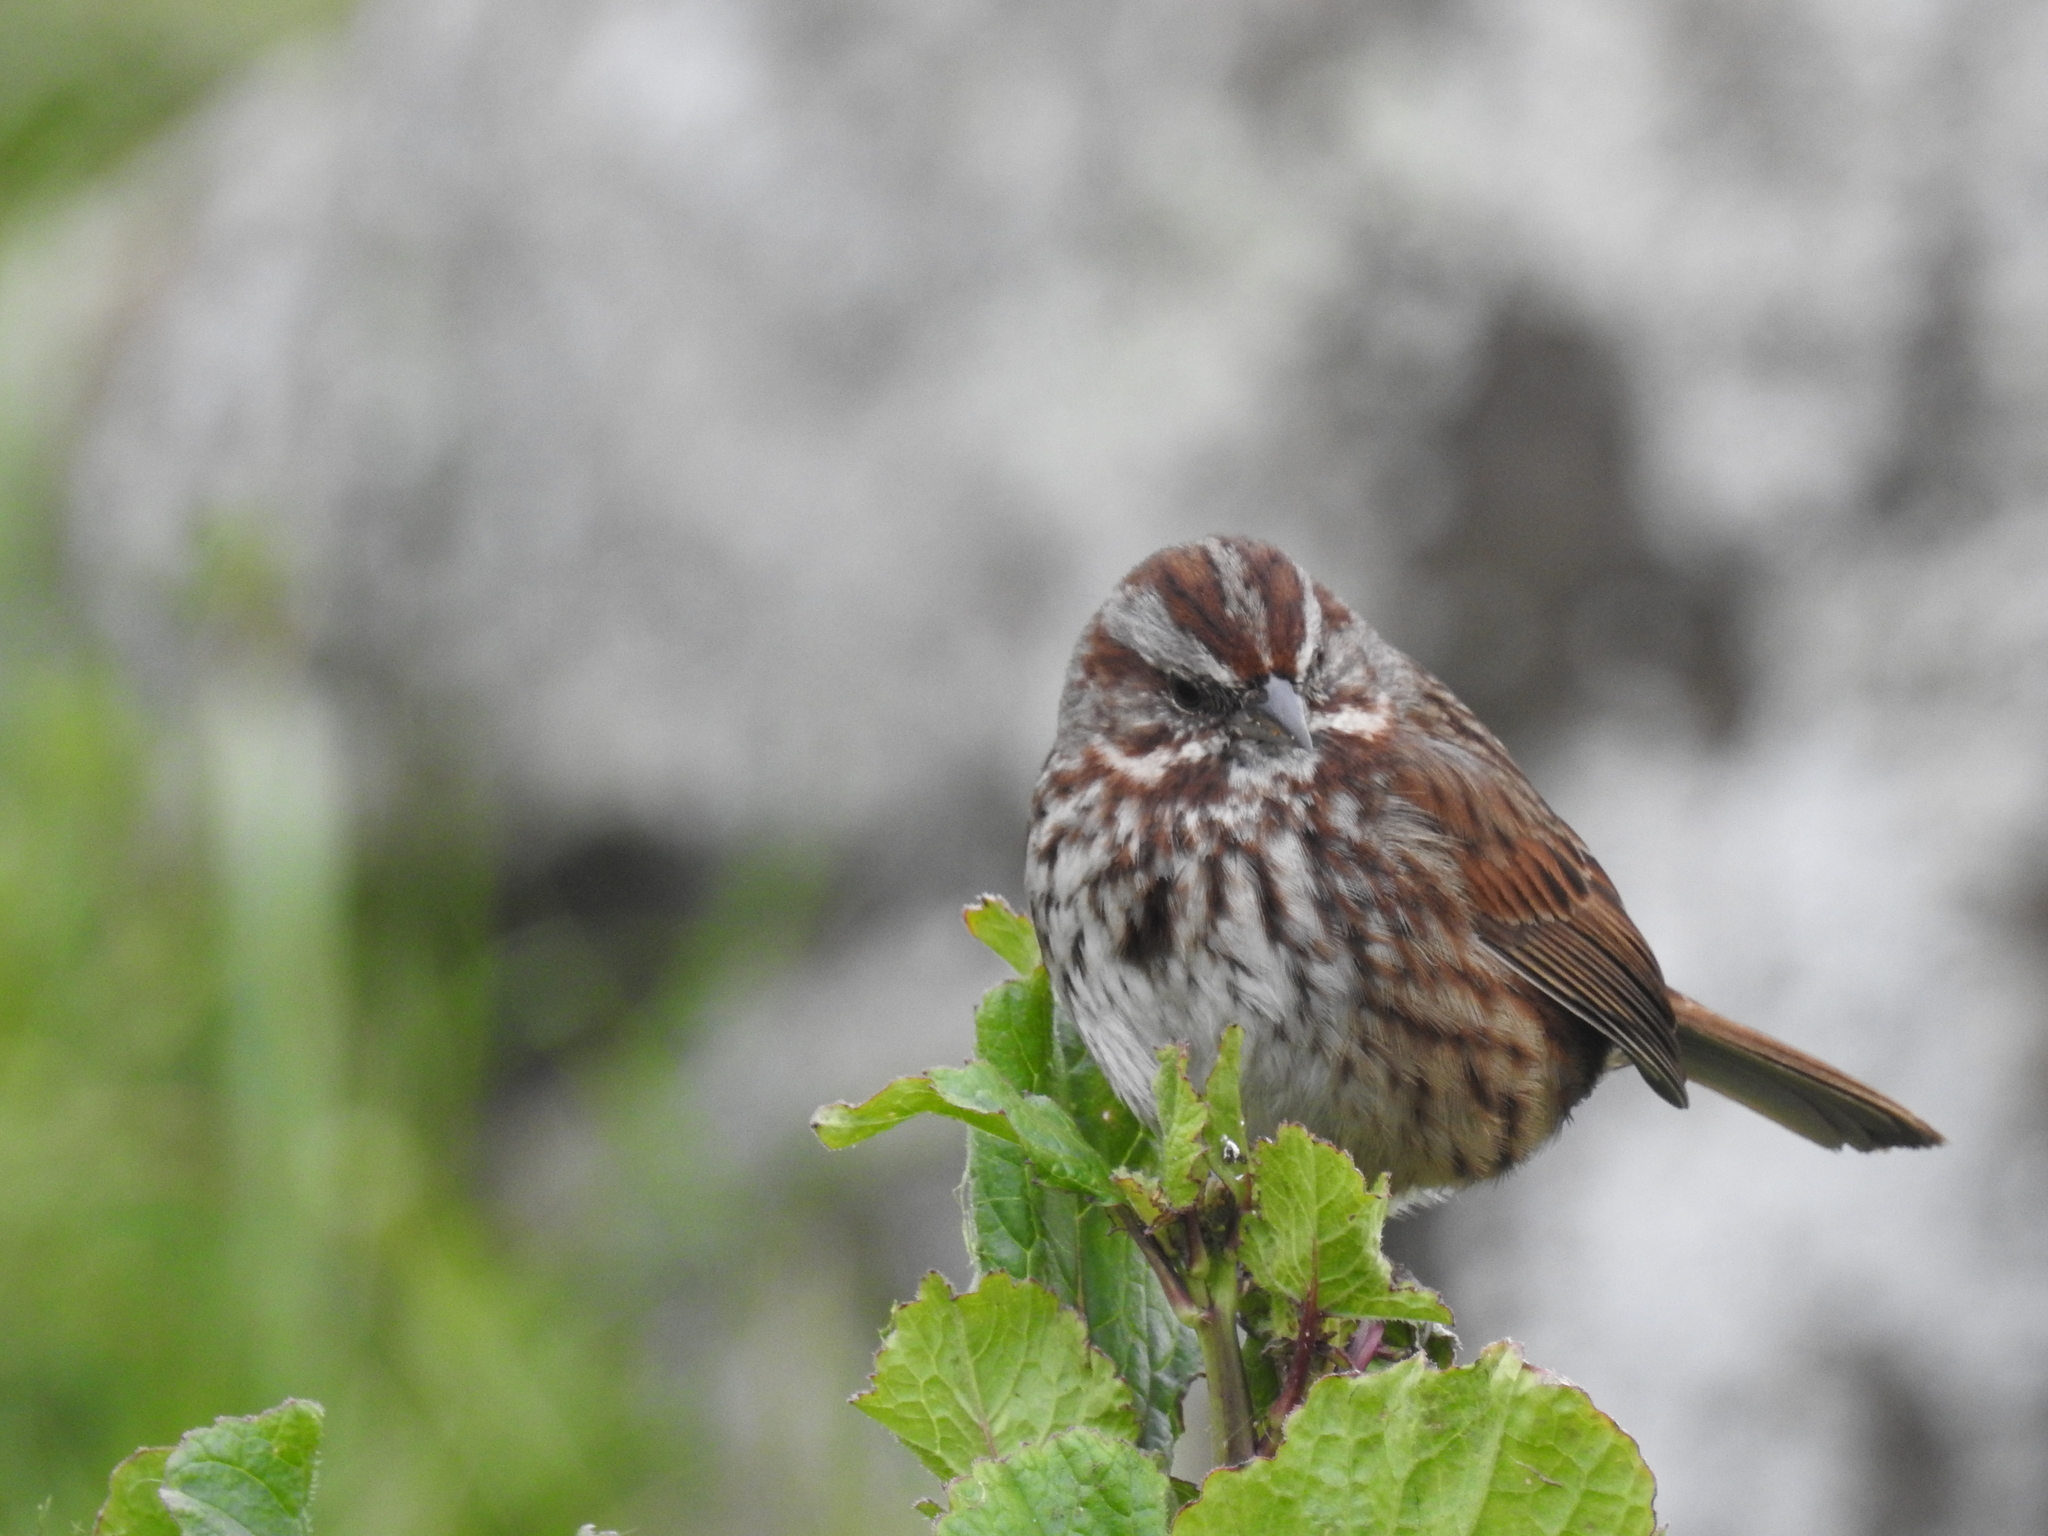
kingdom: Animalia
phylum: Chordata
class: Aves
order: Passeriformes
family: Passerellidae
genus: Melospiza
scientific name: Melospiza melodia
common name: Song sparrow
